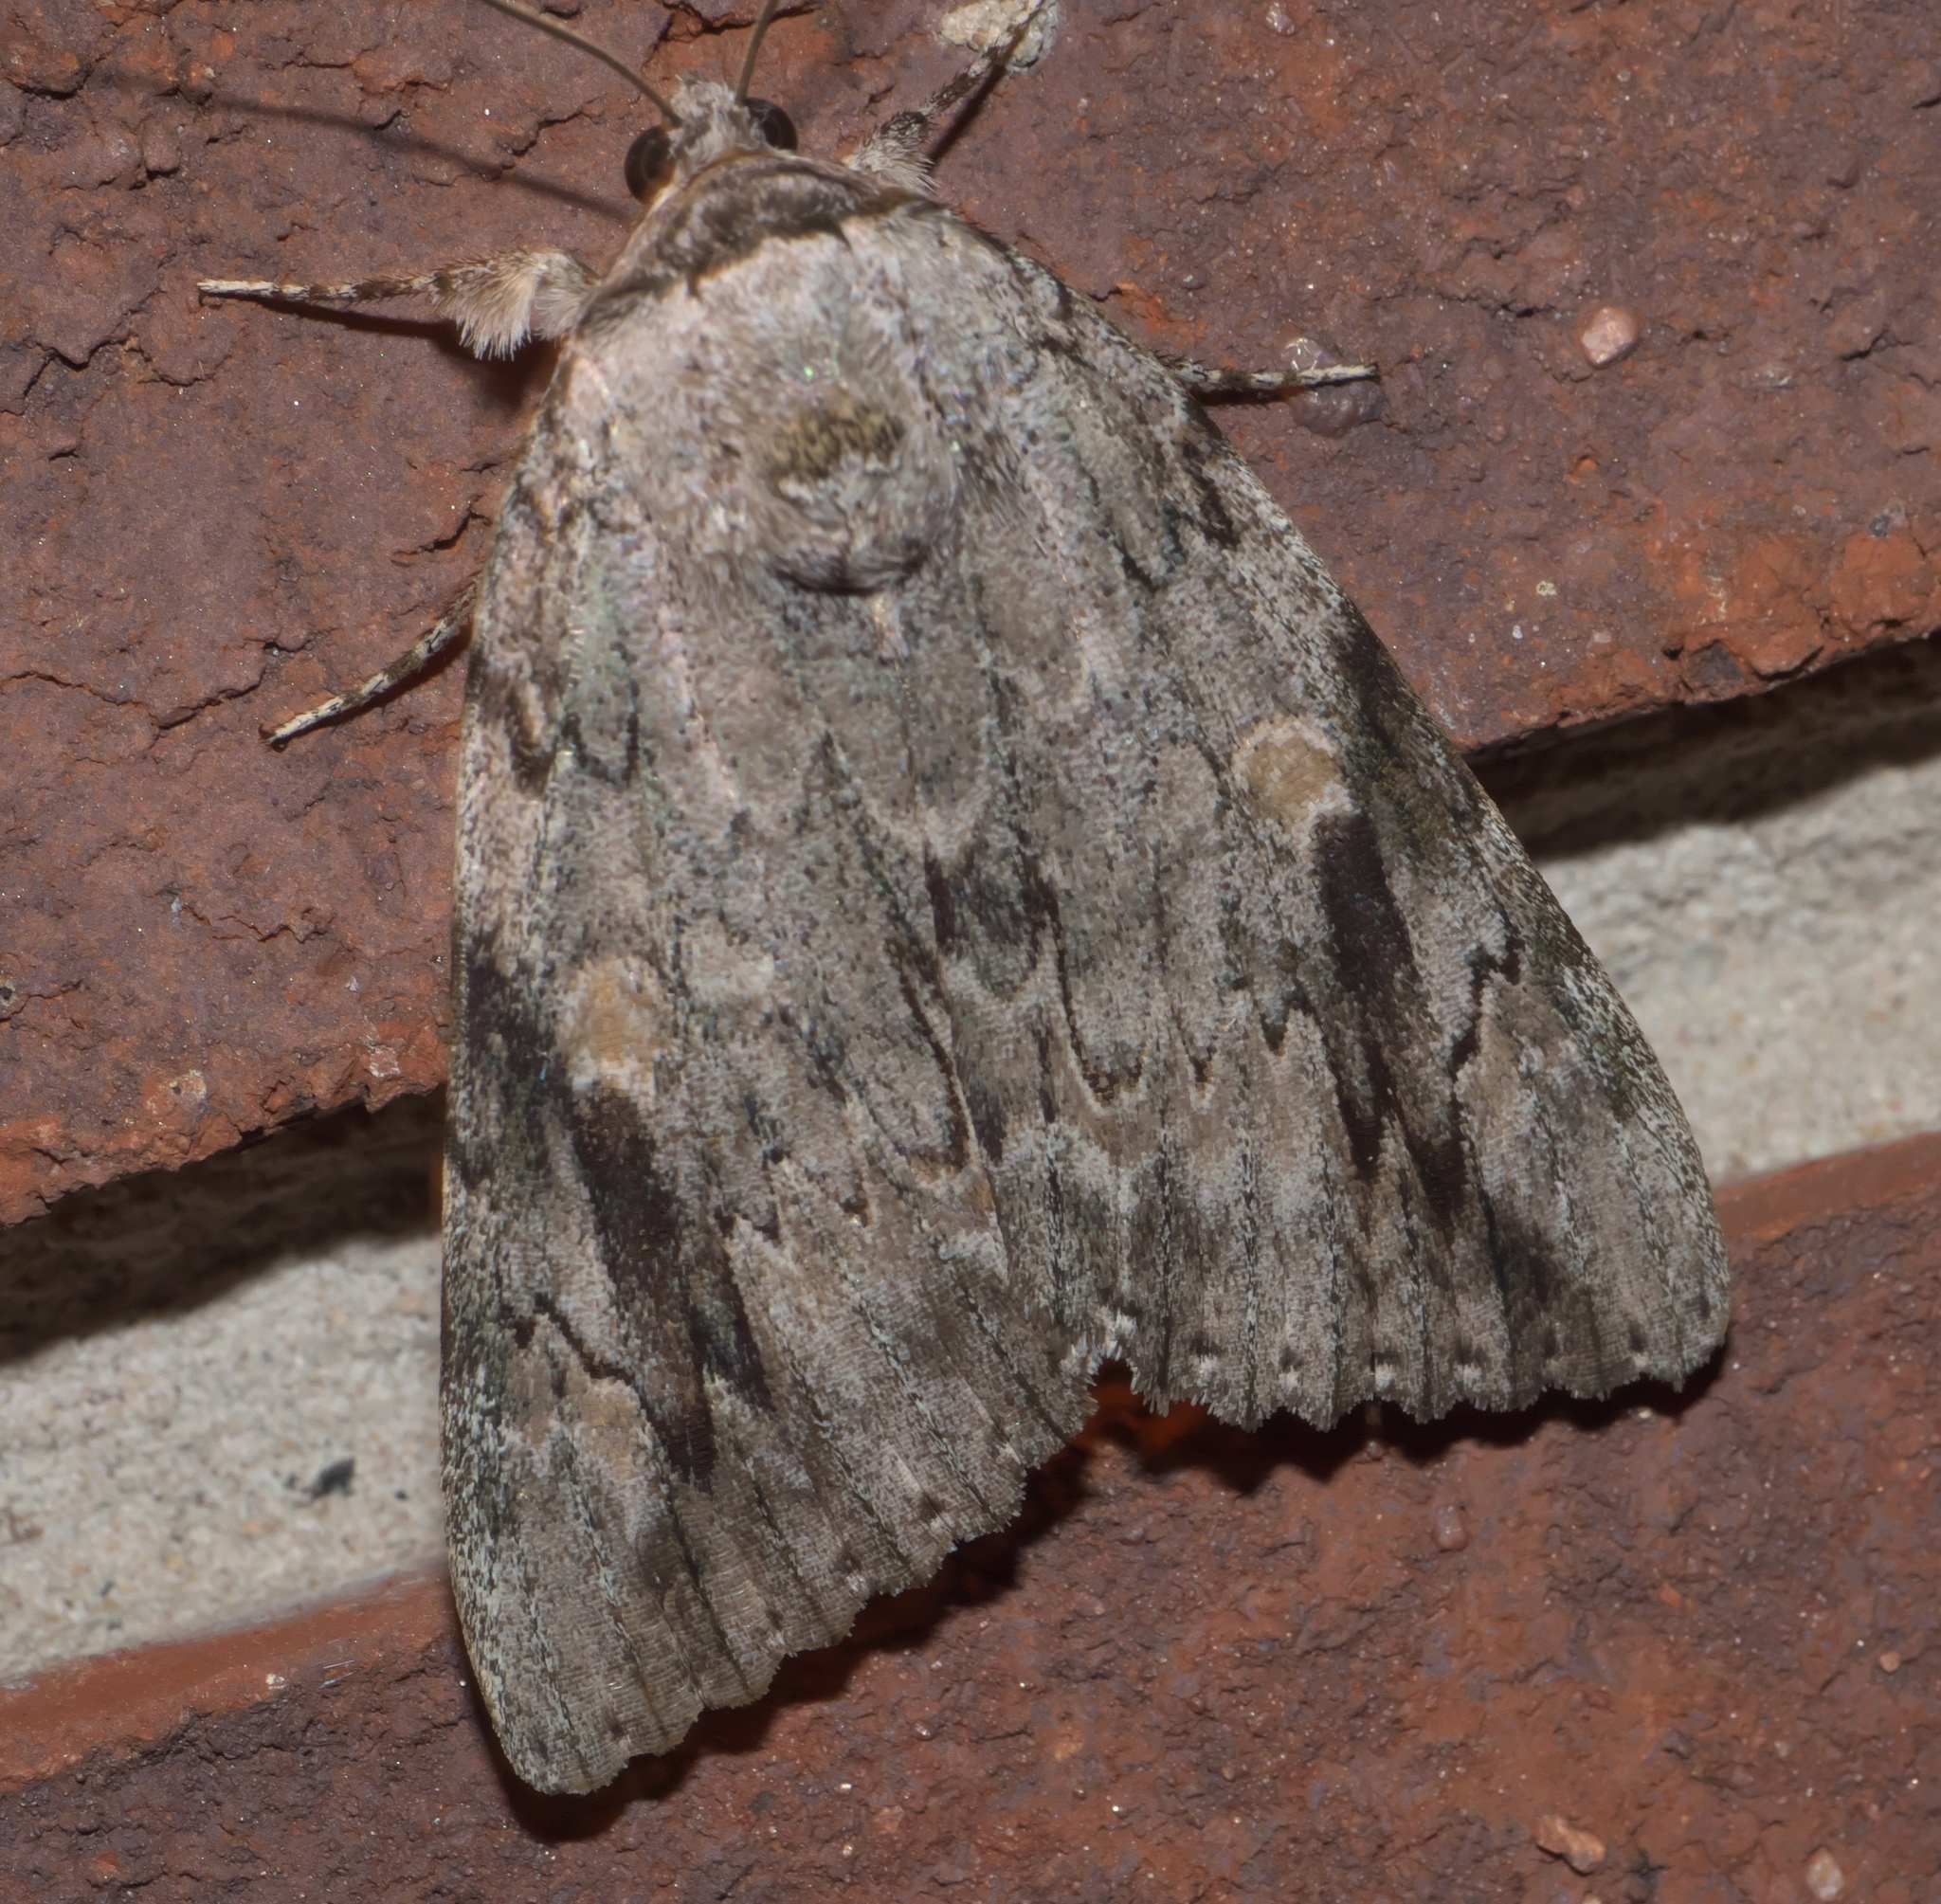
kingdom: Animalia
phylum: Arthropoda
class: Insecta
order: Lepidoptera
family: Erebidae
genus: Catocala
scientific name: Catocala maestosa
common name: Sad underwing
